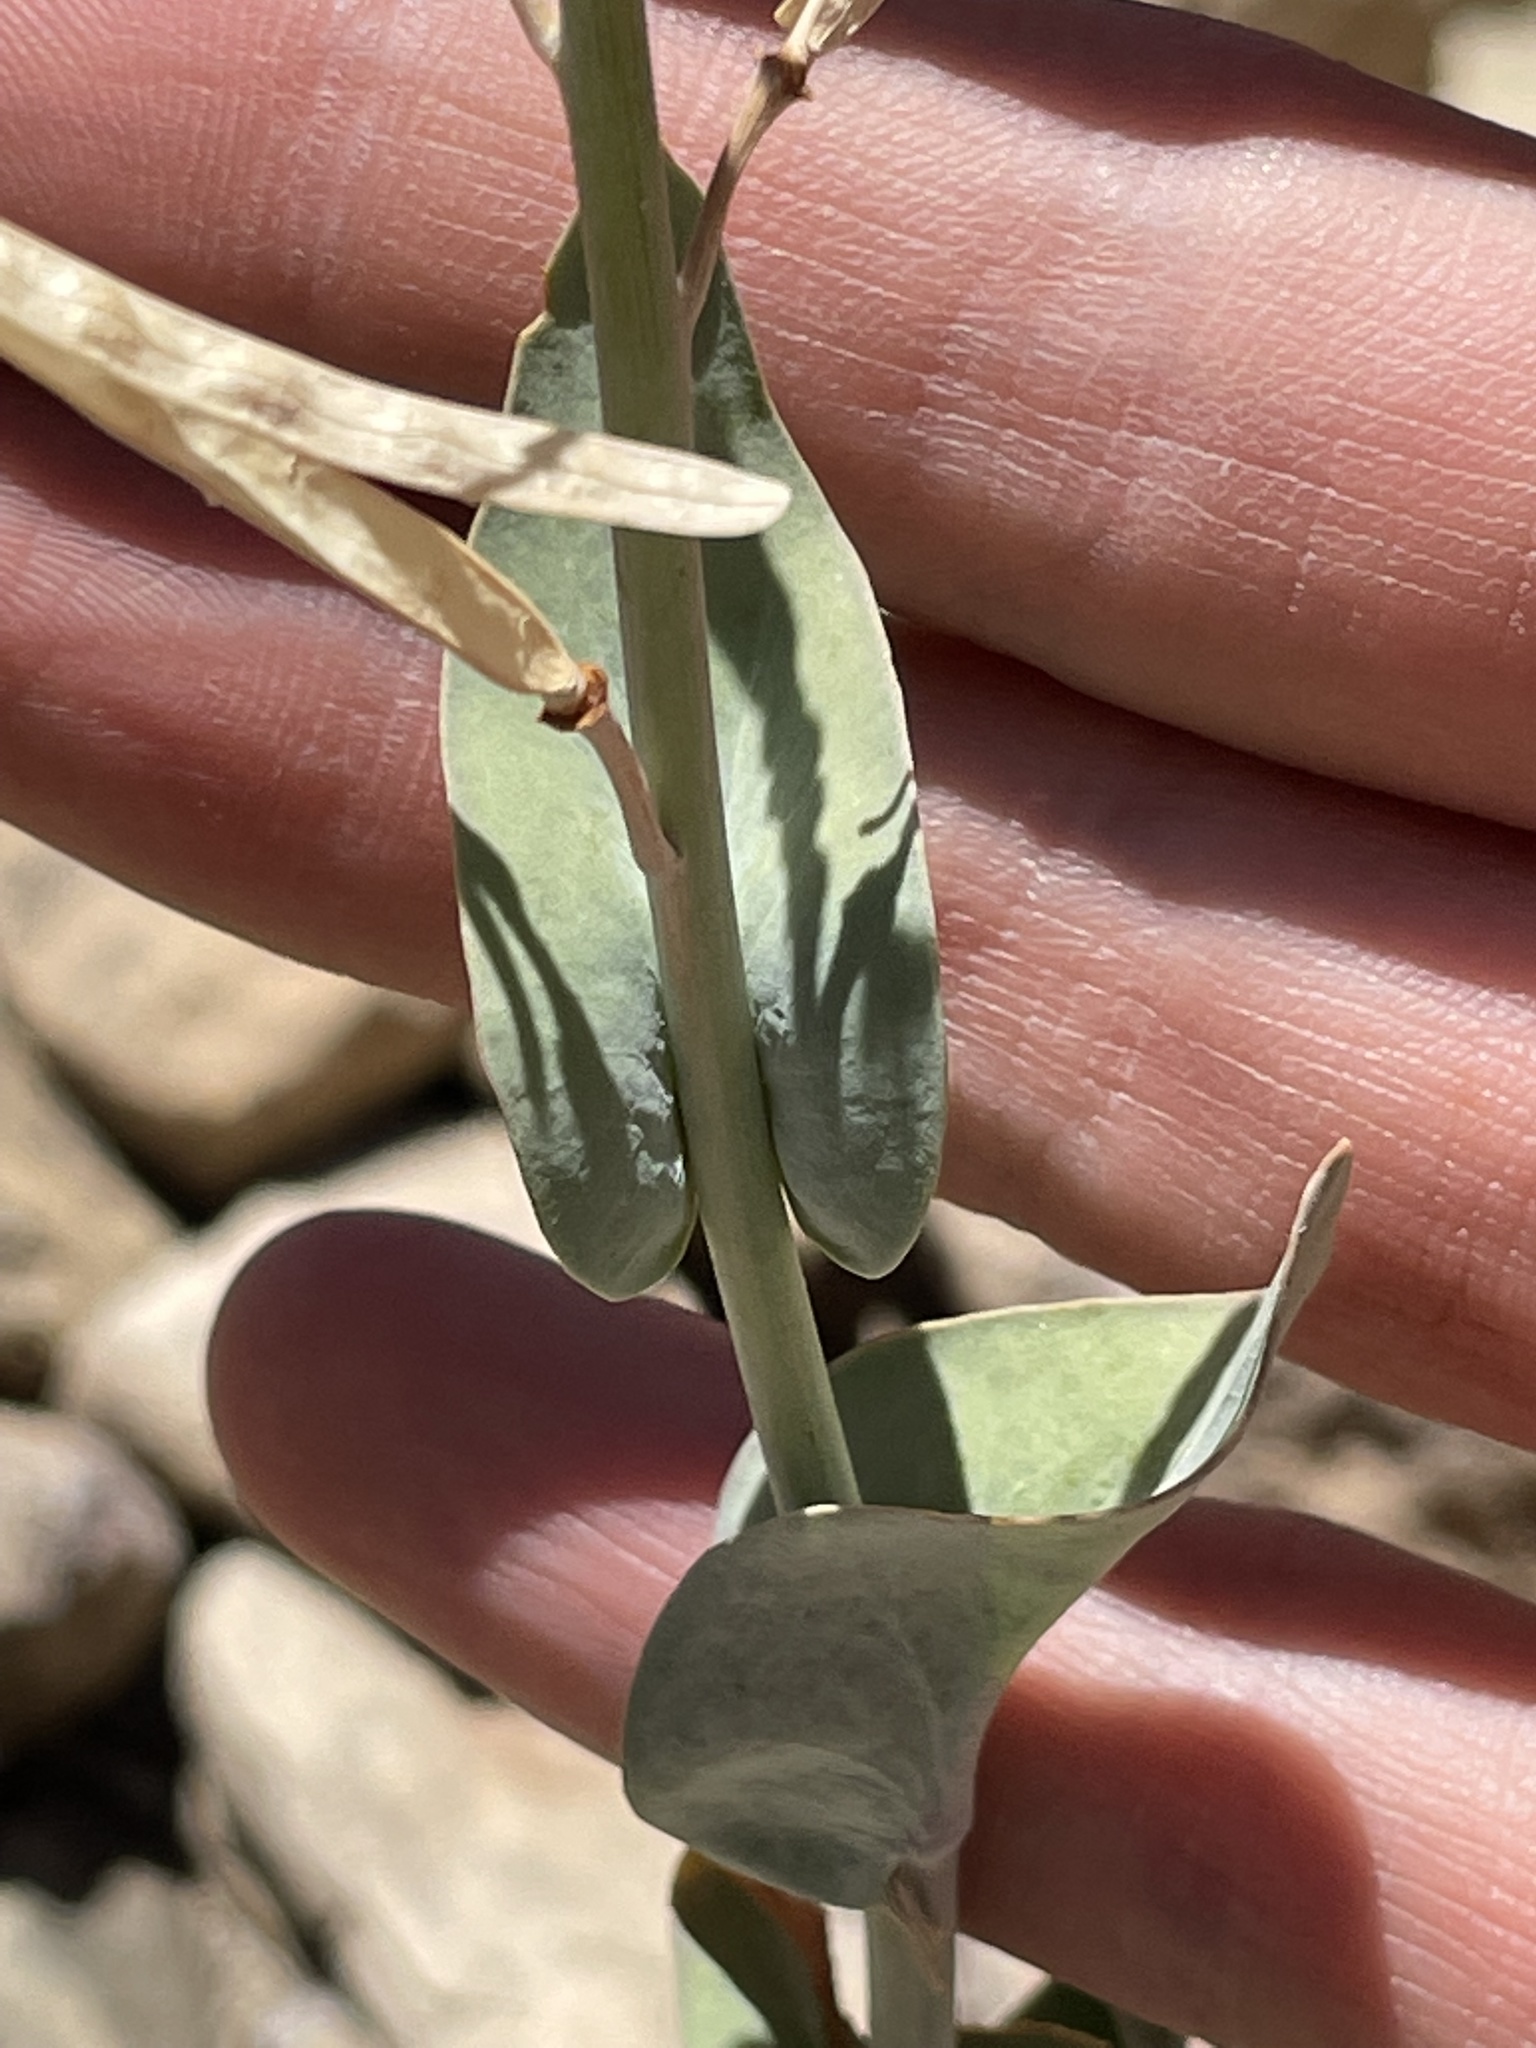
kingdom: Plantae
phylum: Tracheophyta
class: Magnoliopsida
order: Brassicales
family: Brassicaceae
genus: Streptanthus
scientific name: Streptanthus cordatus
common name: Heart-leaf jewel-flower
